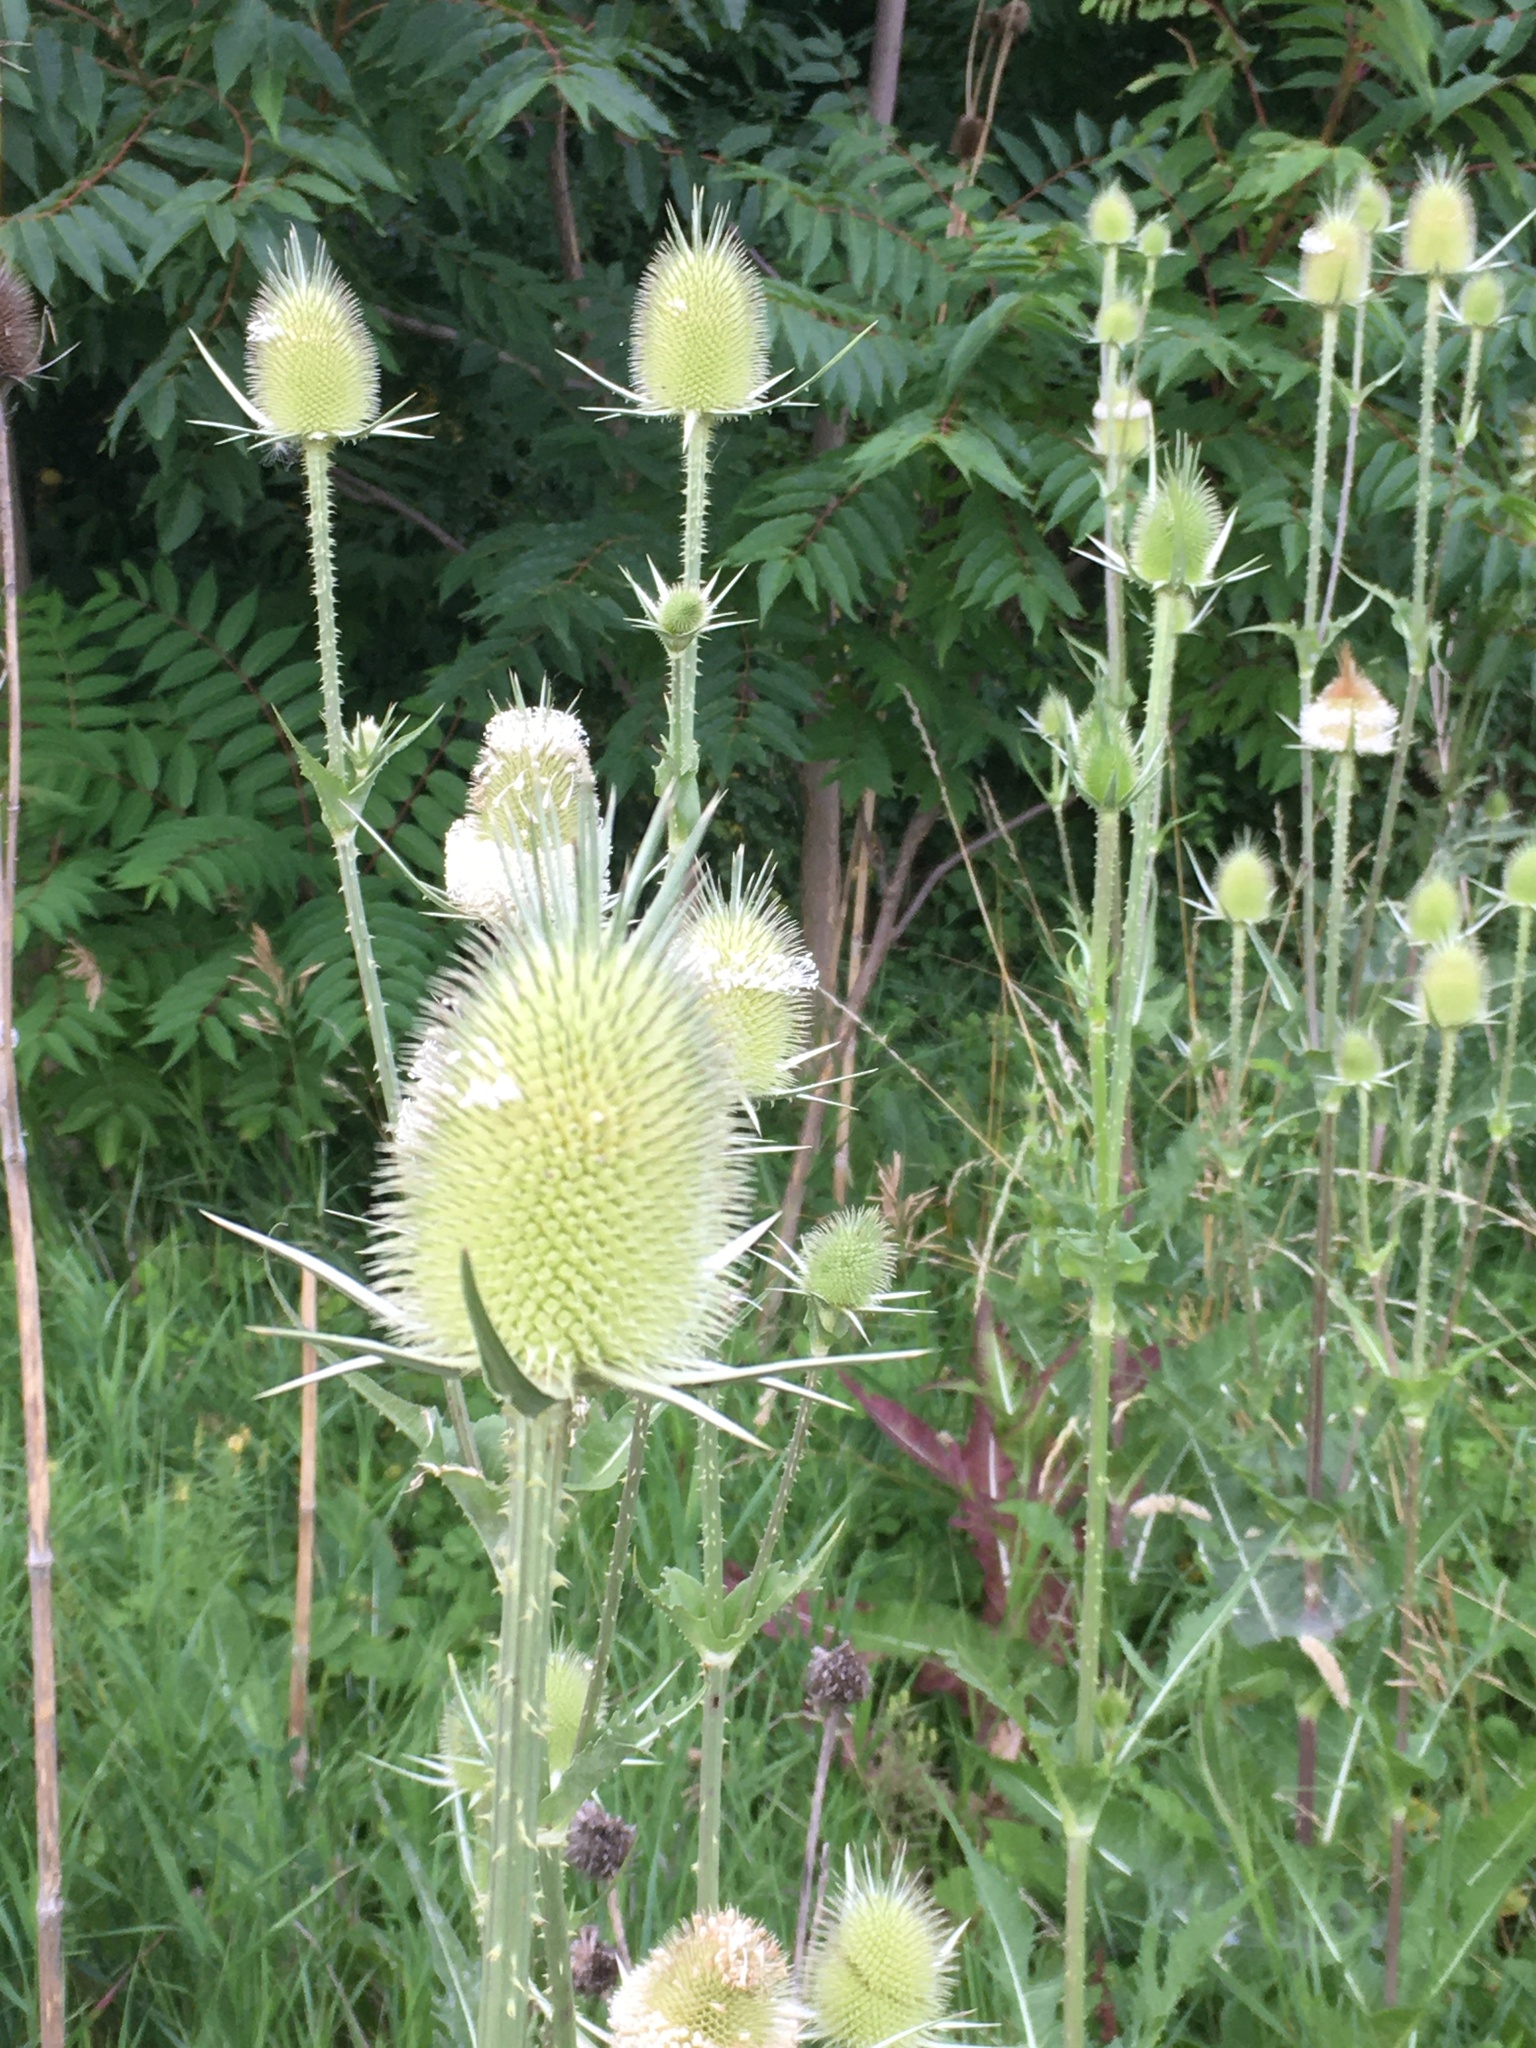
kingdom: Plantae
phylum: Tracheophyta
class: Magnoliopsida
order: Dipsacales
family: Caprifoliaceae
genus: Dipsacus
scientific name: Dipsacus laciniatus
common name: Cut-leaved teasel
